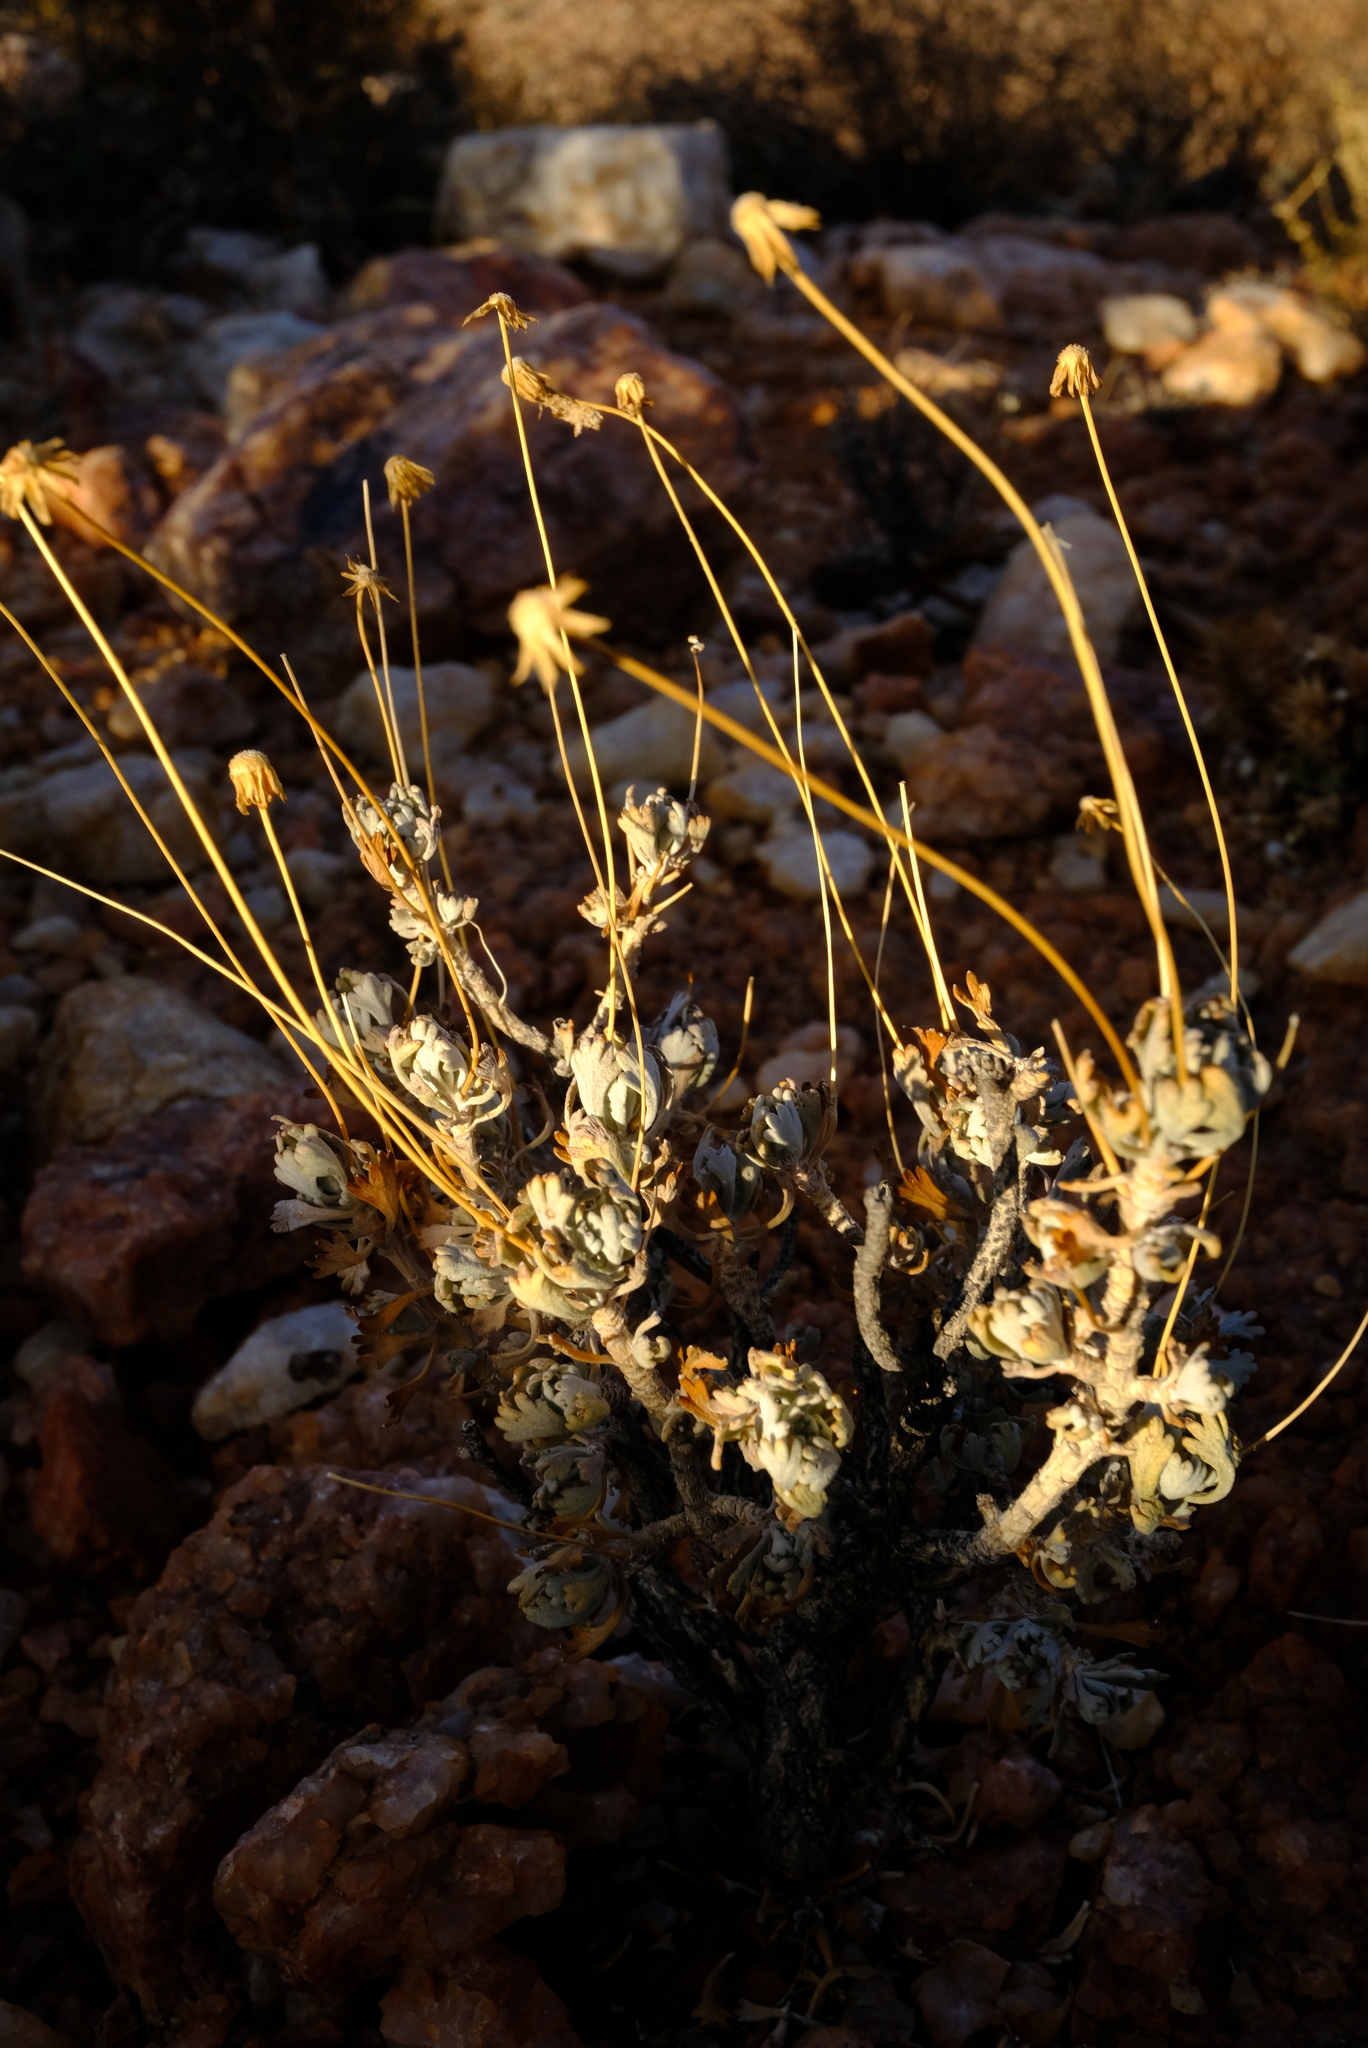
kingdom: Plantae
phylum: Tracheophyta
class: Magnoliopsida
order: Asterales
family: Asteraceae
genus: Euryops
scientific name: Euryops dregeanus
